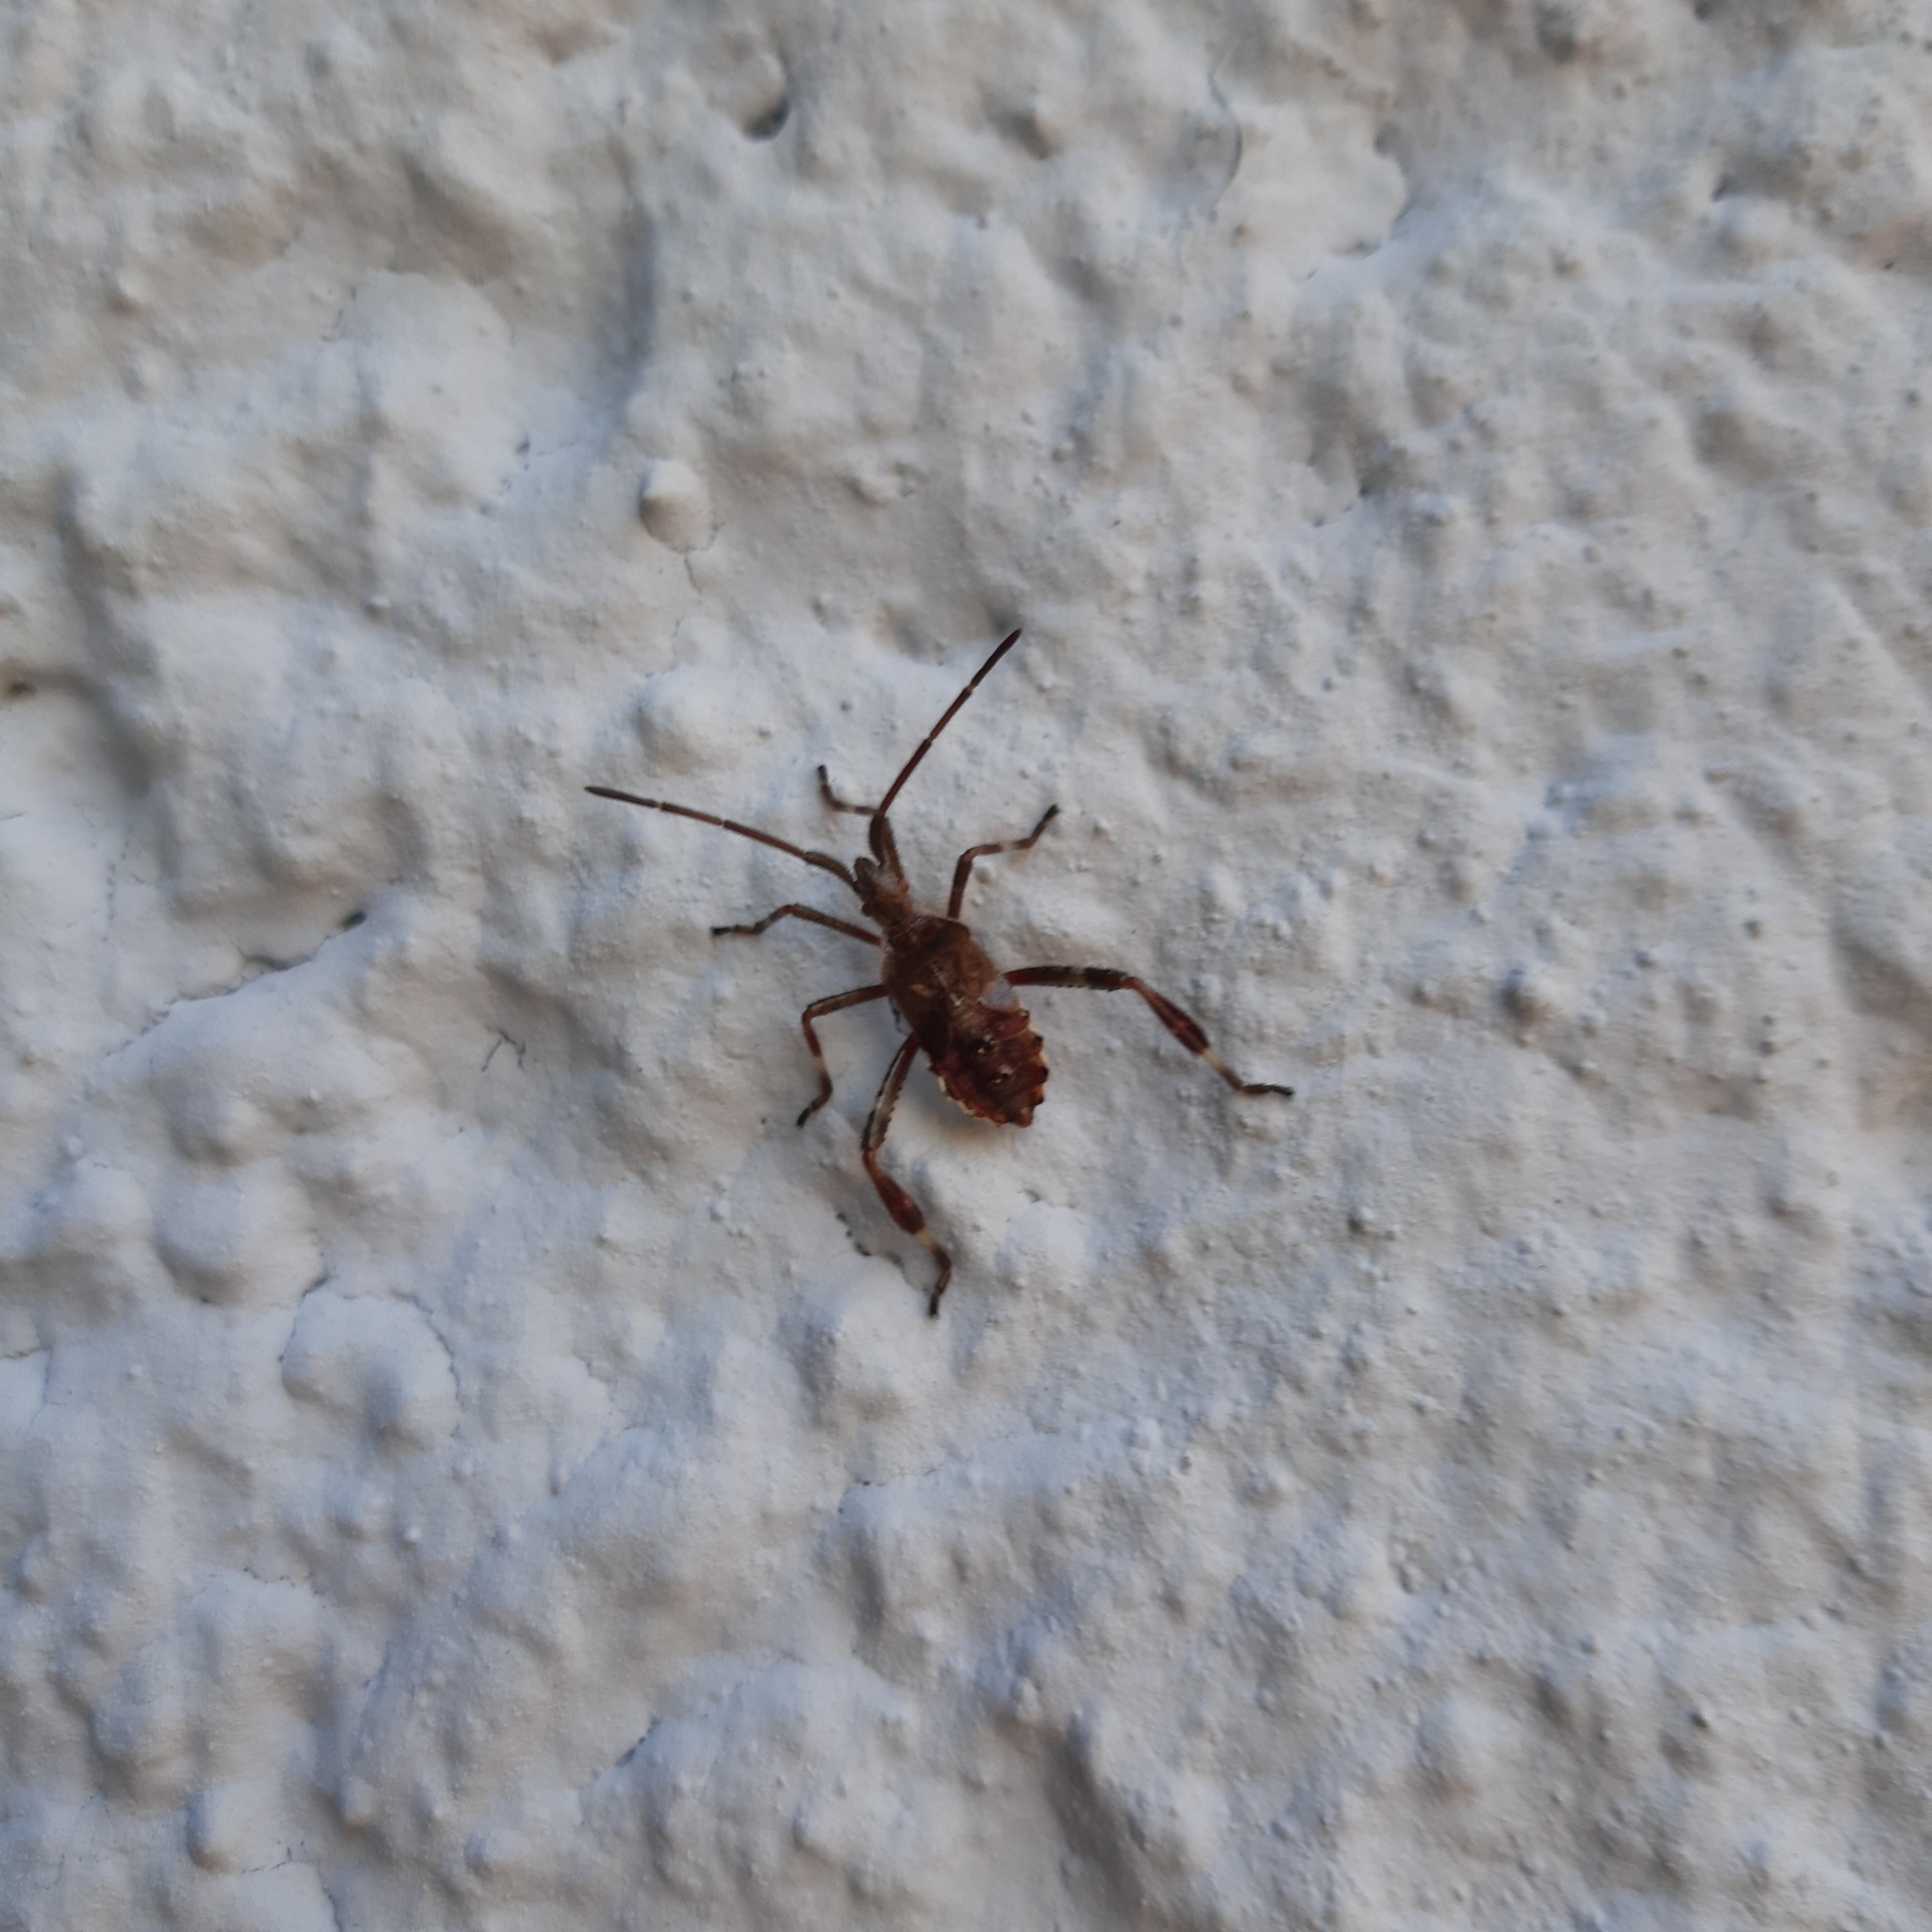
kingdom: Animalia
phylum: Arthropoda
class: Insecta
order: Hemiptera
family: Coreidae
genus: Leptoglossus
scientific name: Leptoglossus occidentalis
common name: Western conifer-seed bug
